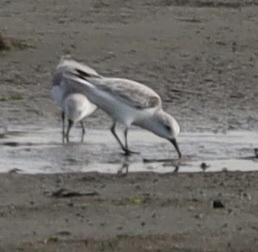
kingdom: Animalia
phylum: Chordata
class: Aves
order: Charadriiformes
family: Scolopacidae
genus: Calidris
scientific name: Calidris alba
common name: Sanderling
